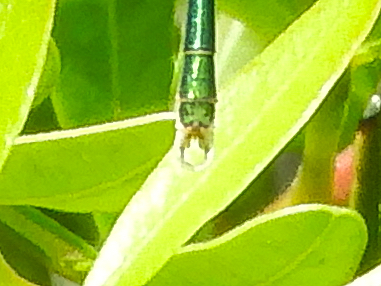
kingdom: Animalia
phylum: Arthropoda
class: Insecta
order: Odonata
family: Lestidae
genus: Lestes
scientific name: Lestes virens
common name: Small emerald spreadwing
